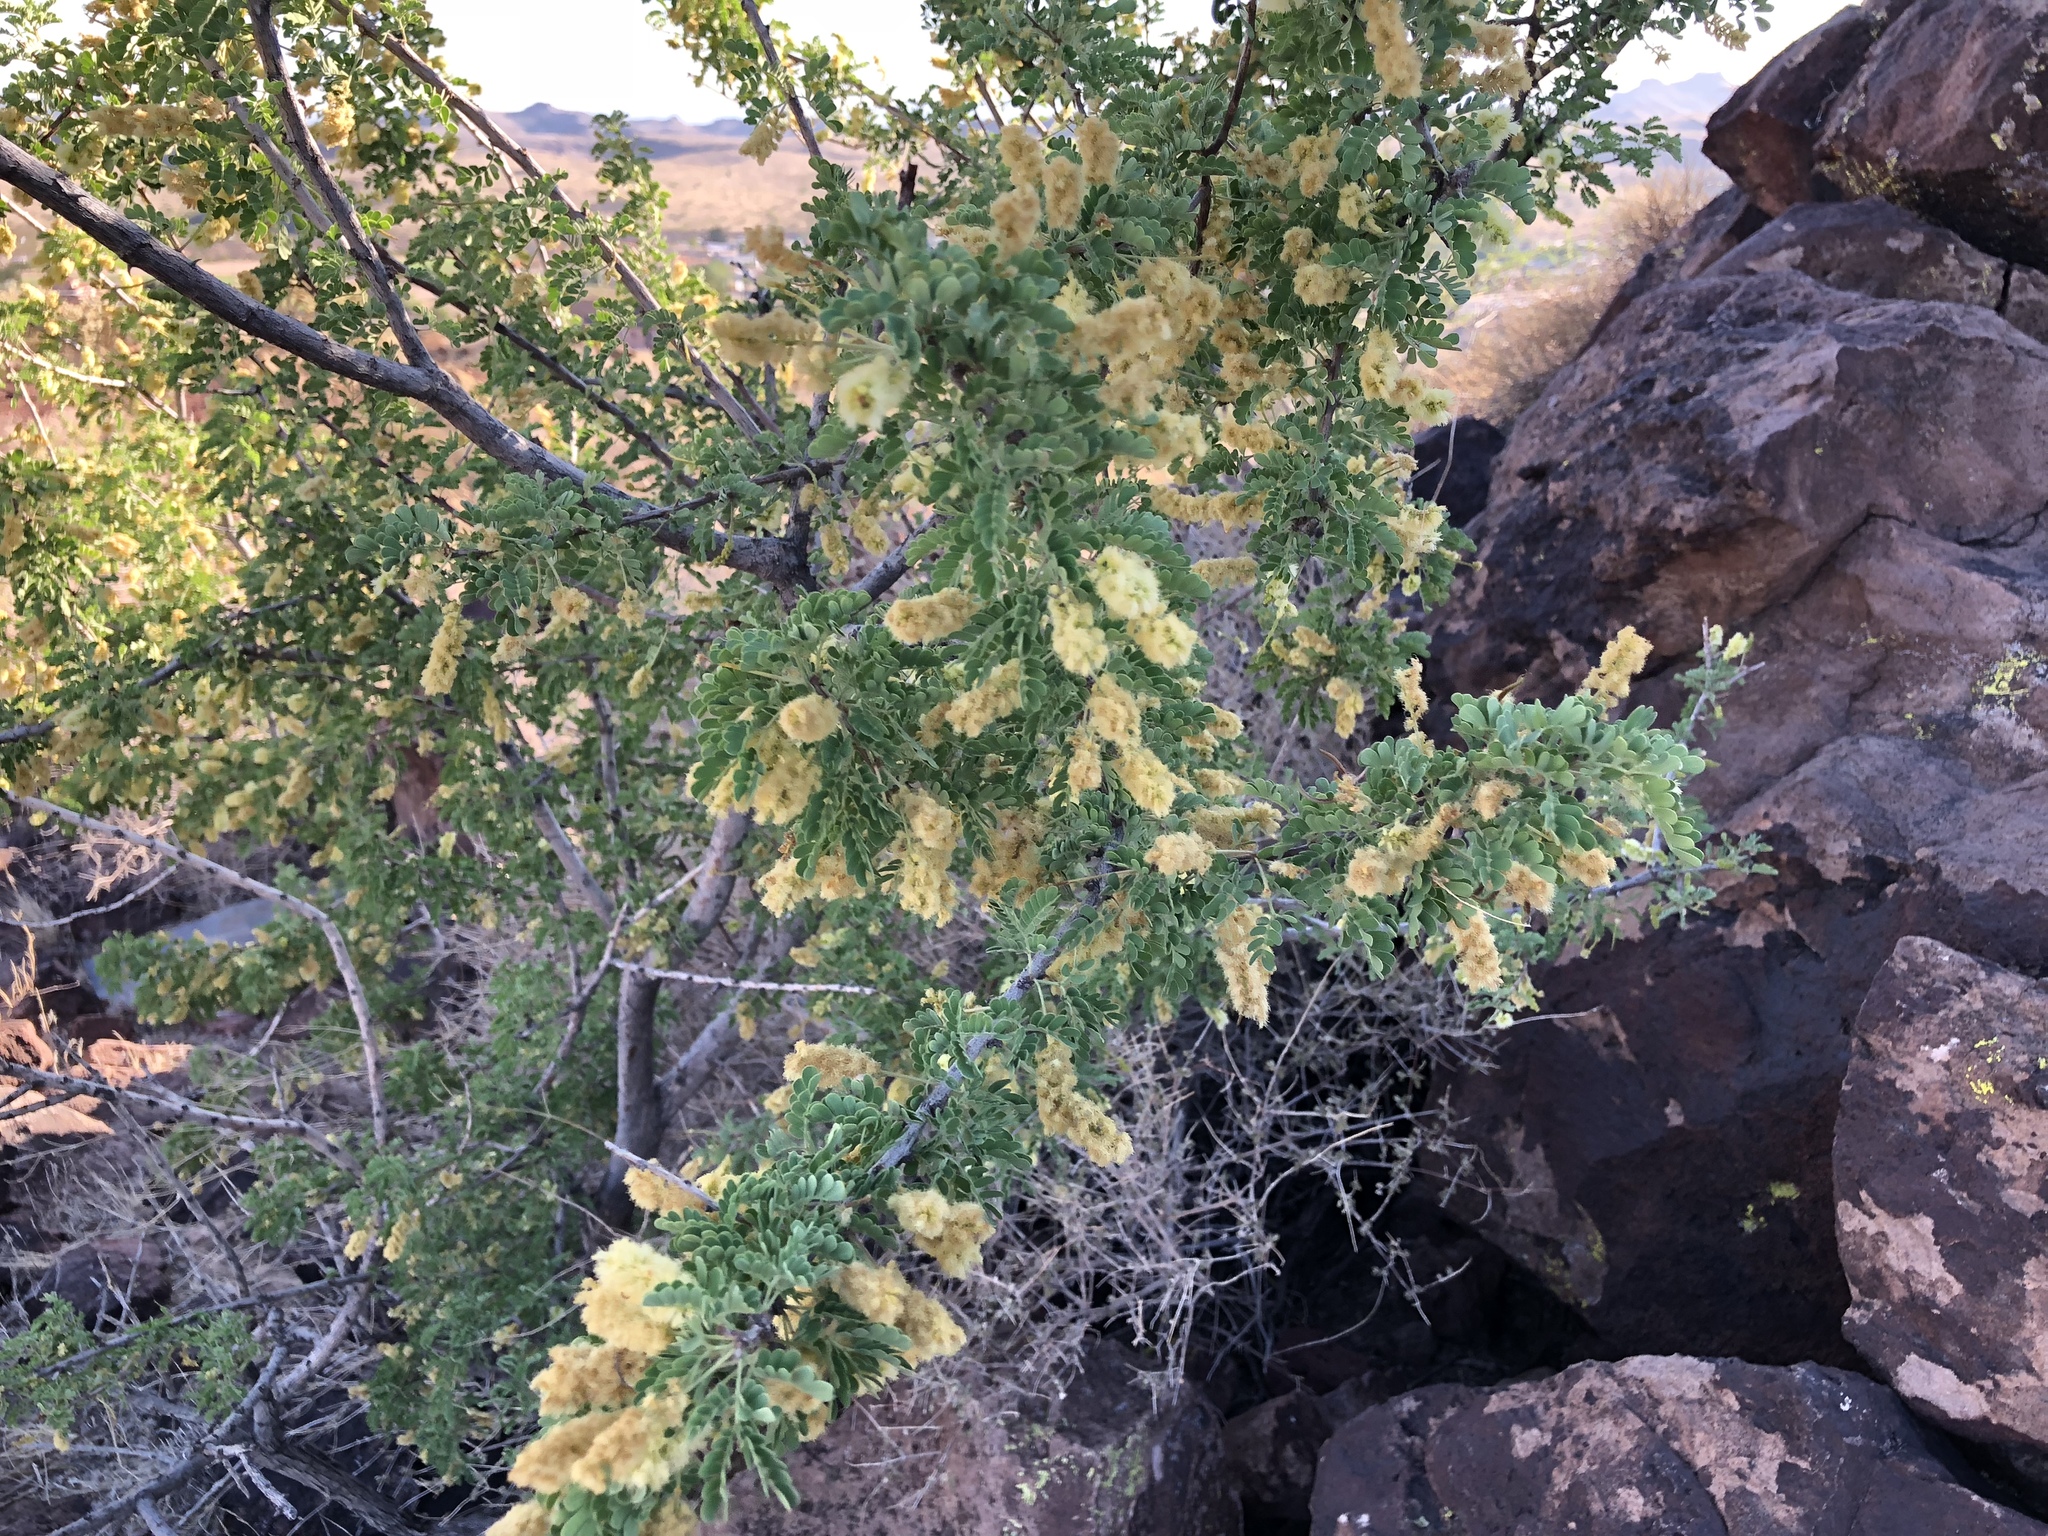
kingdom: Plantae
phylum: Tracheophyta
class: Magnoliopsida
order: Fabales
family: Fabaceae
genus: Senegalia
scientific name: Senegalia greggii
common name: Texas-mimosa
